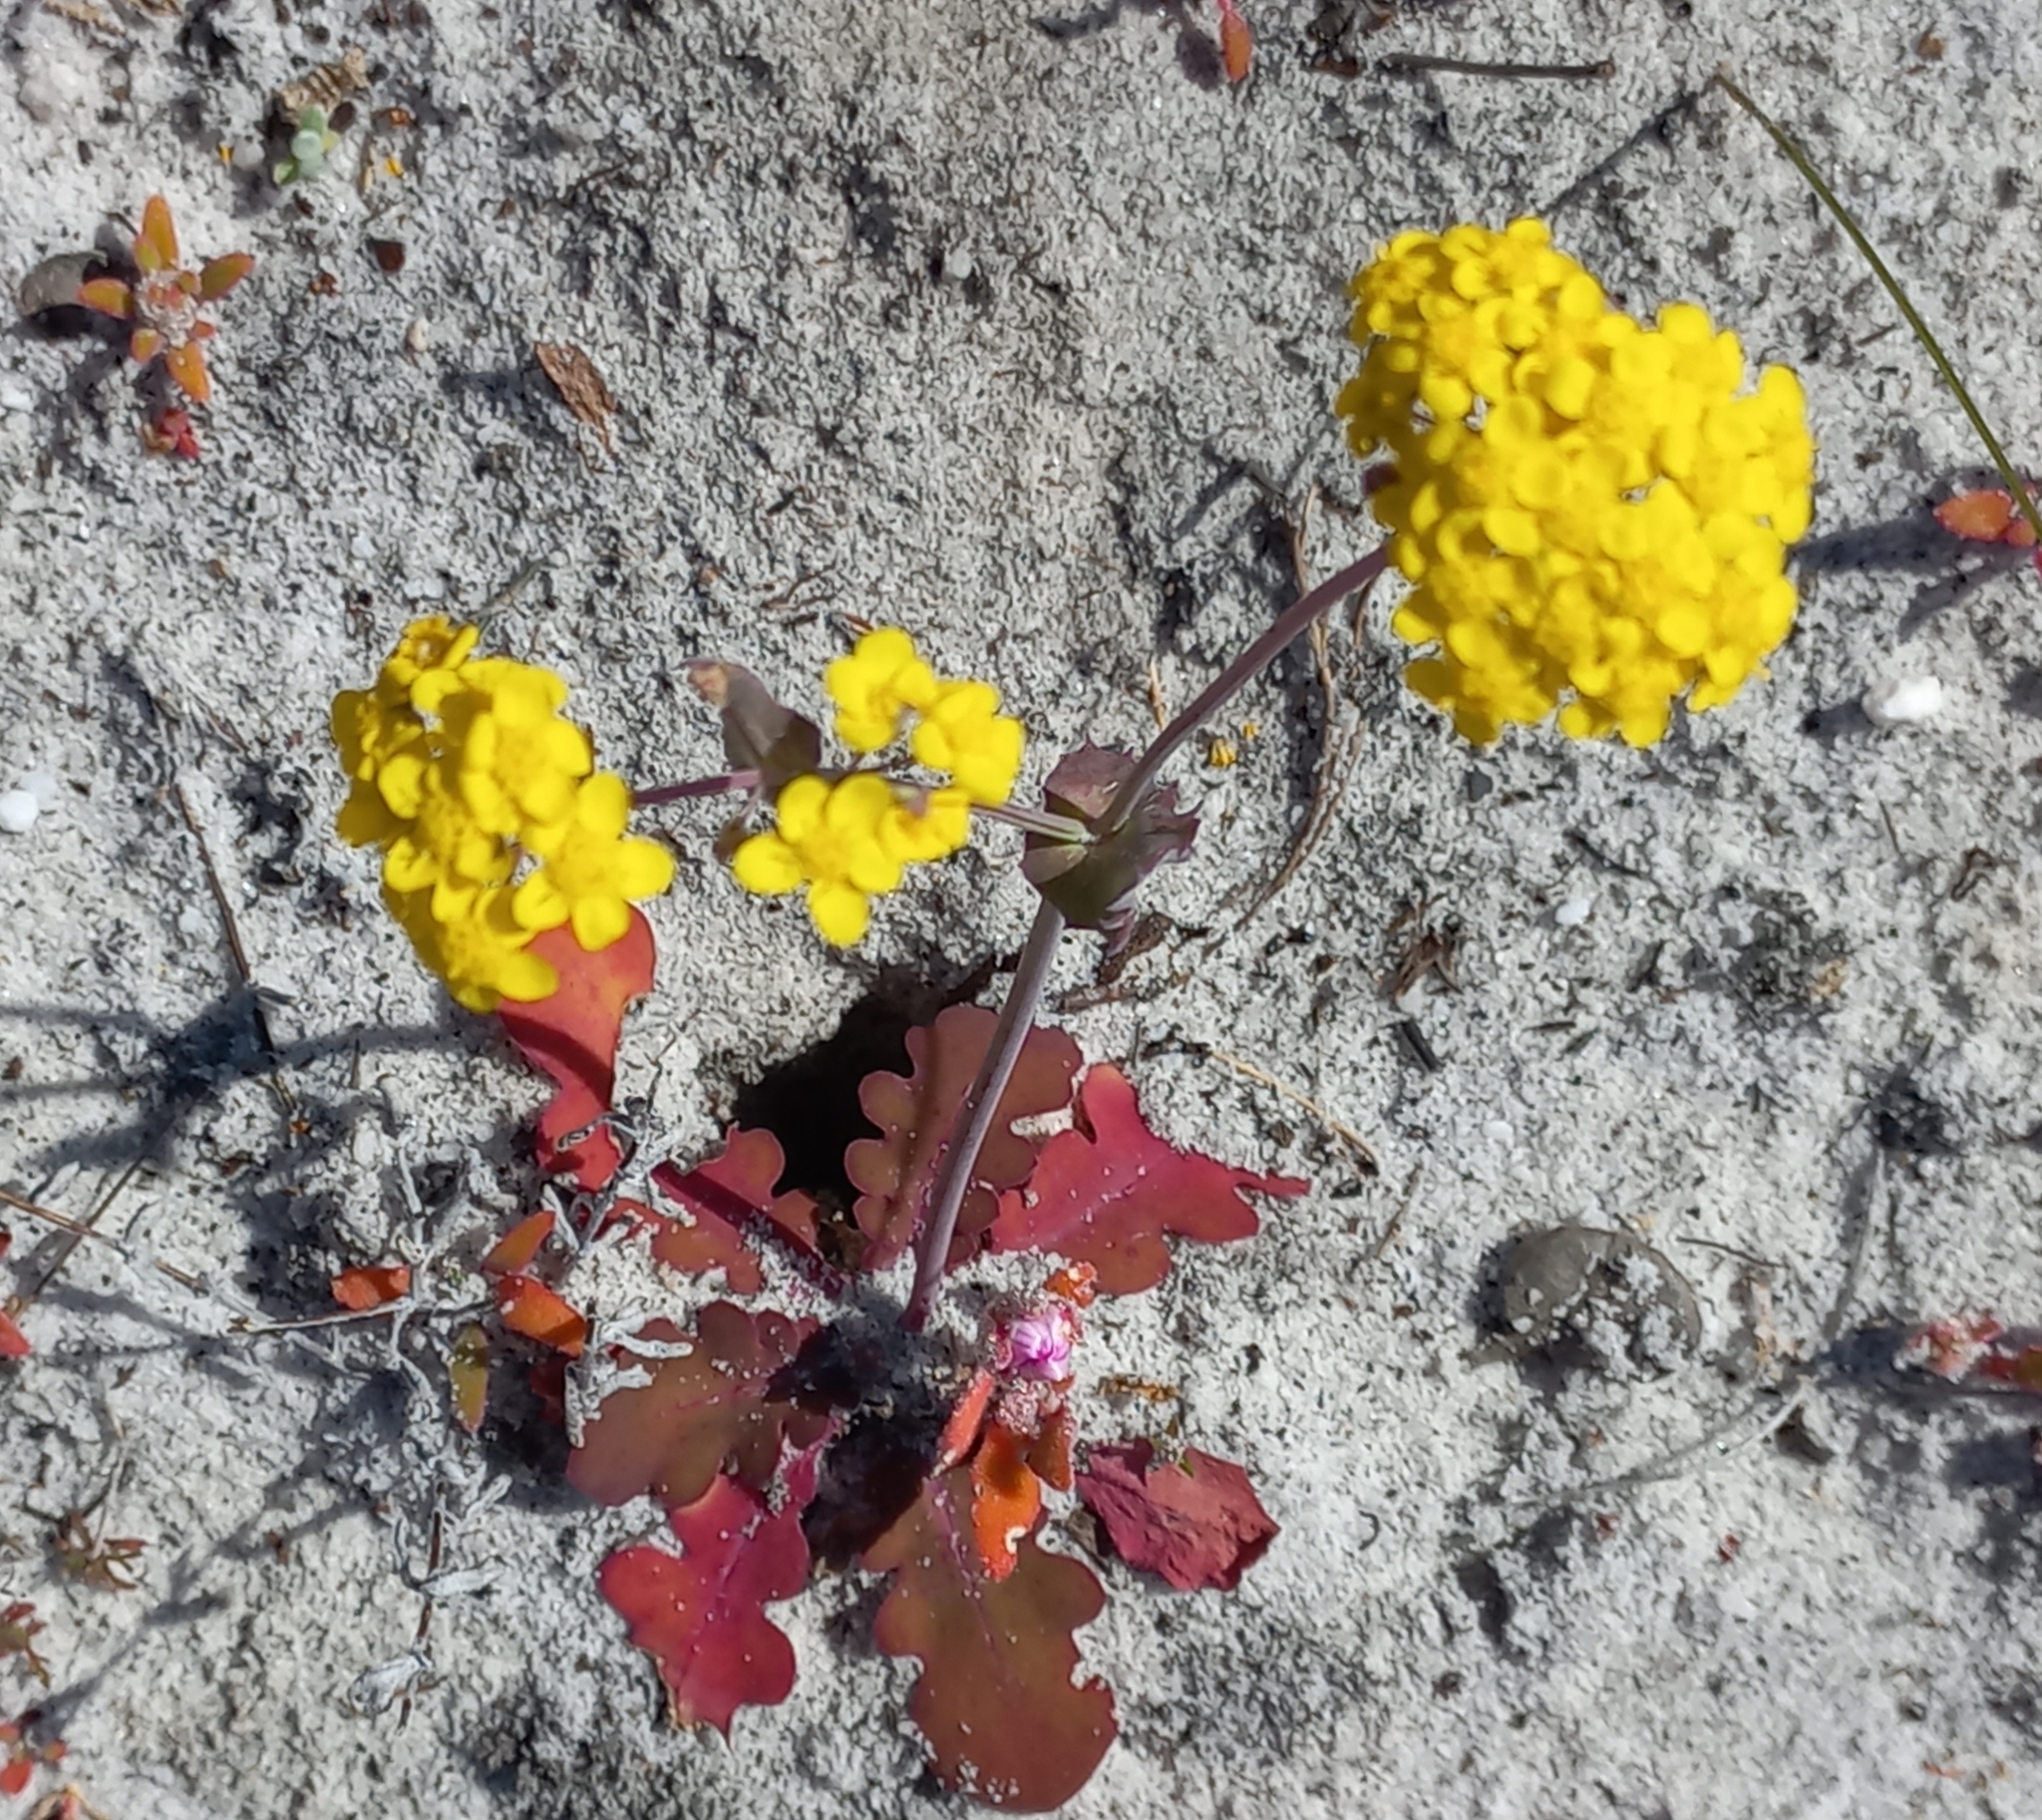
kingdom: Plantae
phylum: Tracheophyta
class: Magnoliopsida
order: Asterales
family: Asteraceae
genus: Gymnodiscus
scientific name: Gymnodiscus capillaris
